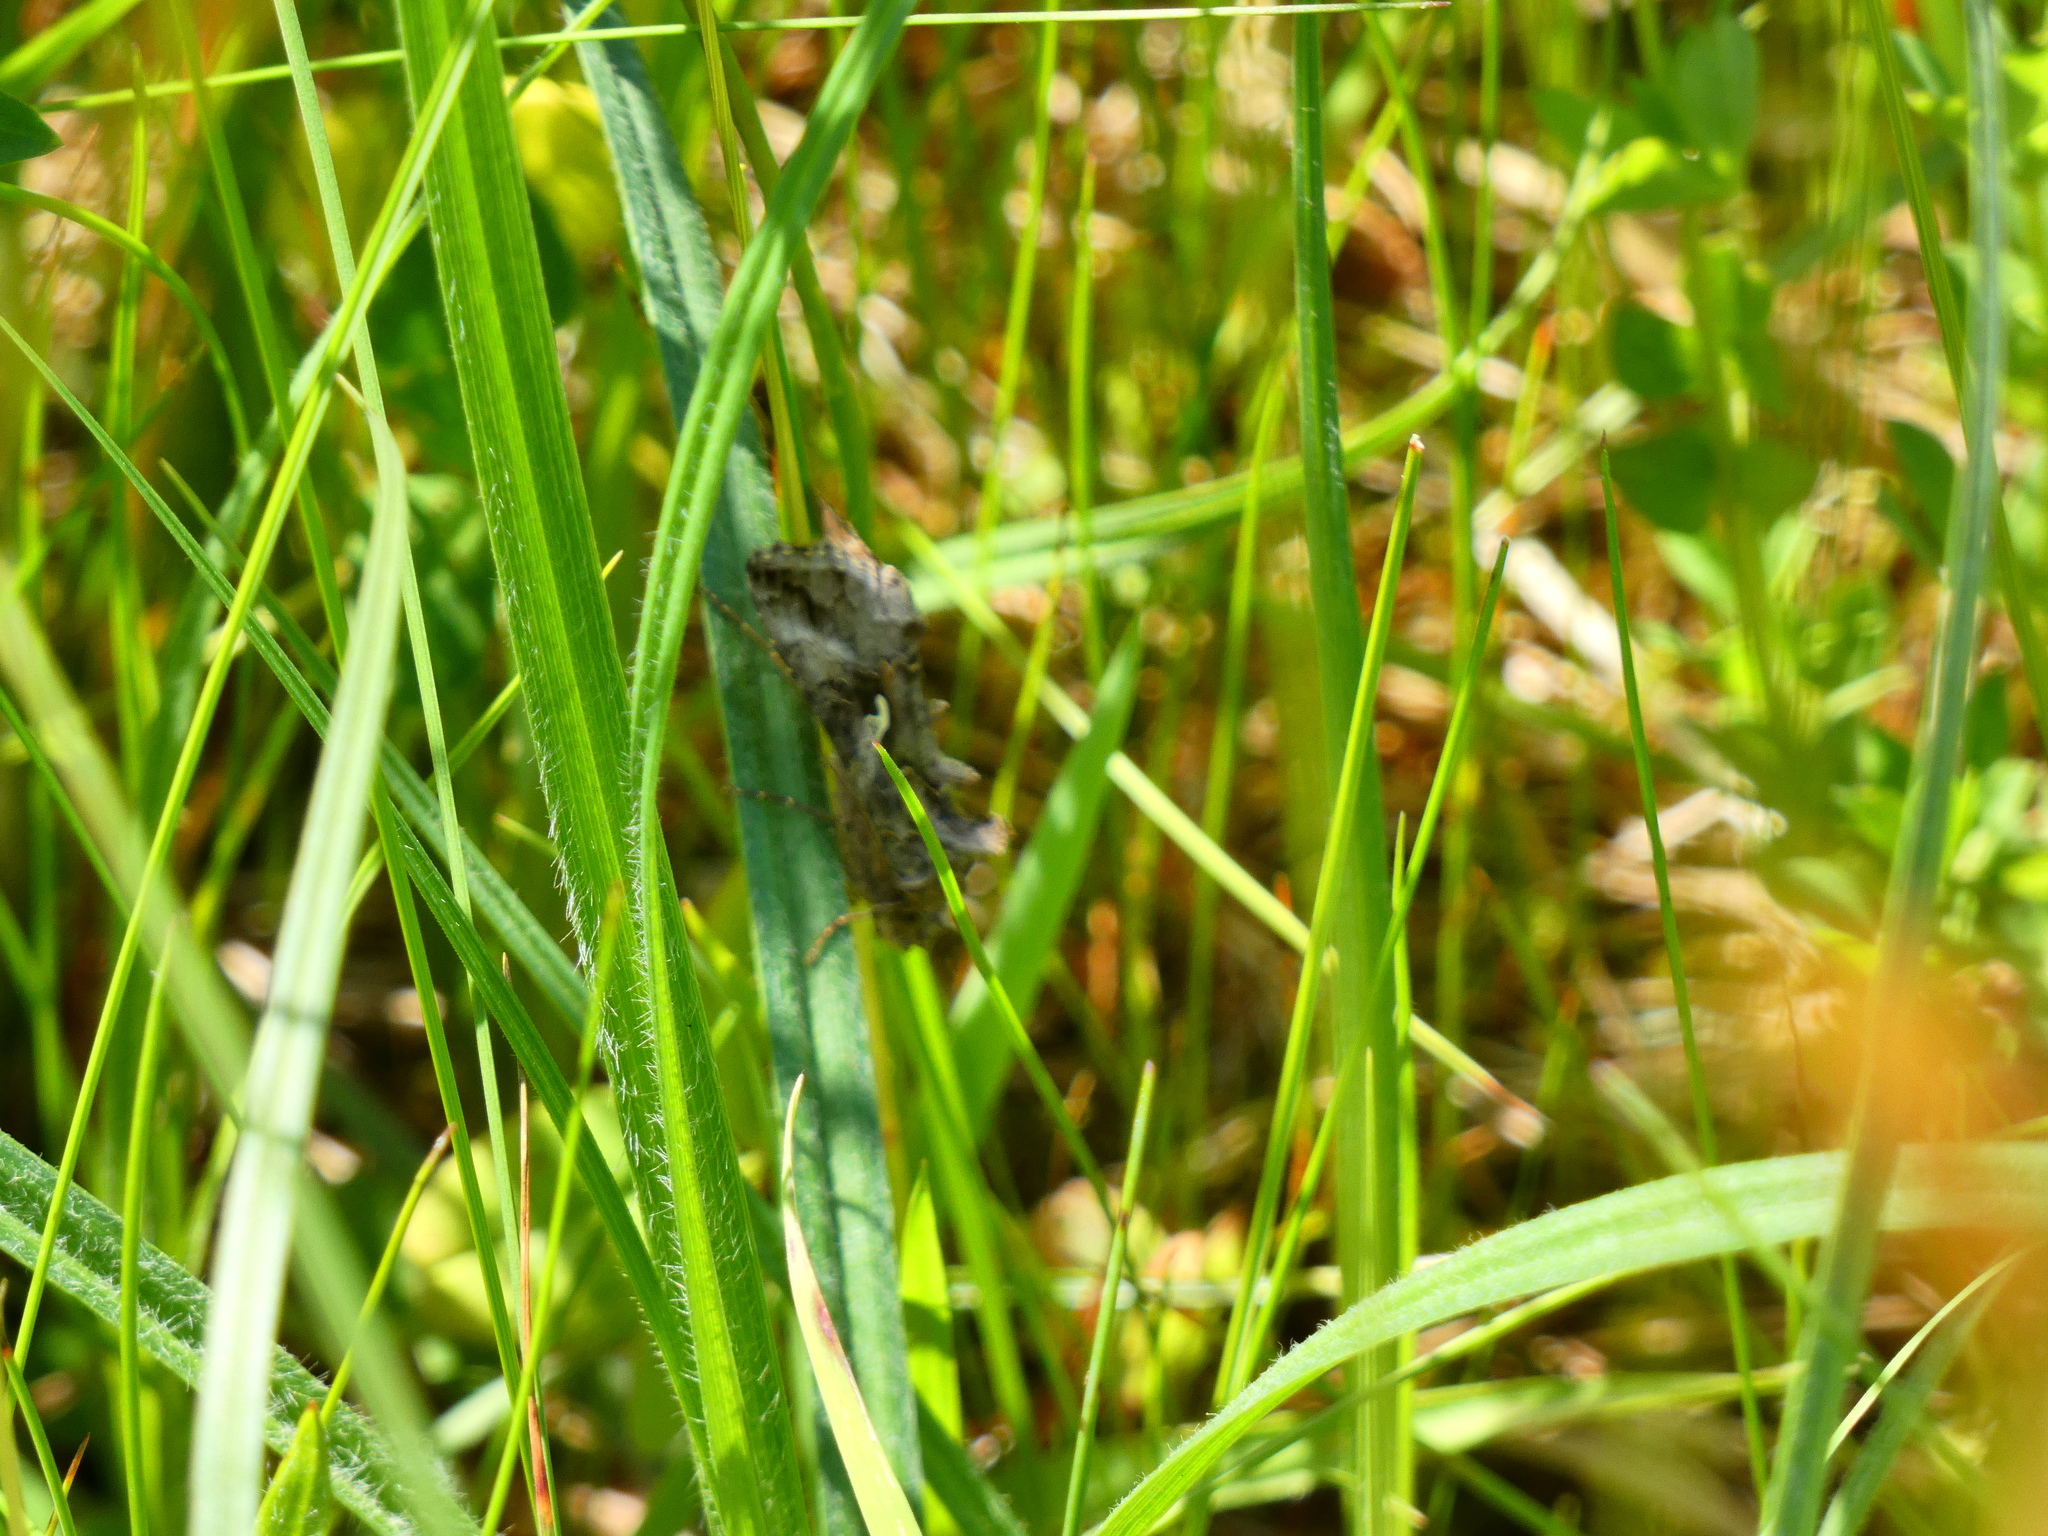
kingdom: Animalia
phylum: Arthropoda
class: Insecta
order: Lepidoptera
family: Noctuidae
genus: Autographa
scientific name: Autographa gamma
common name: Silver y
